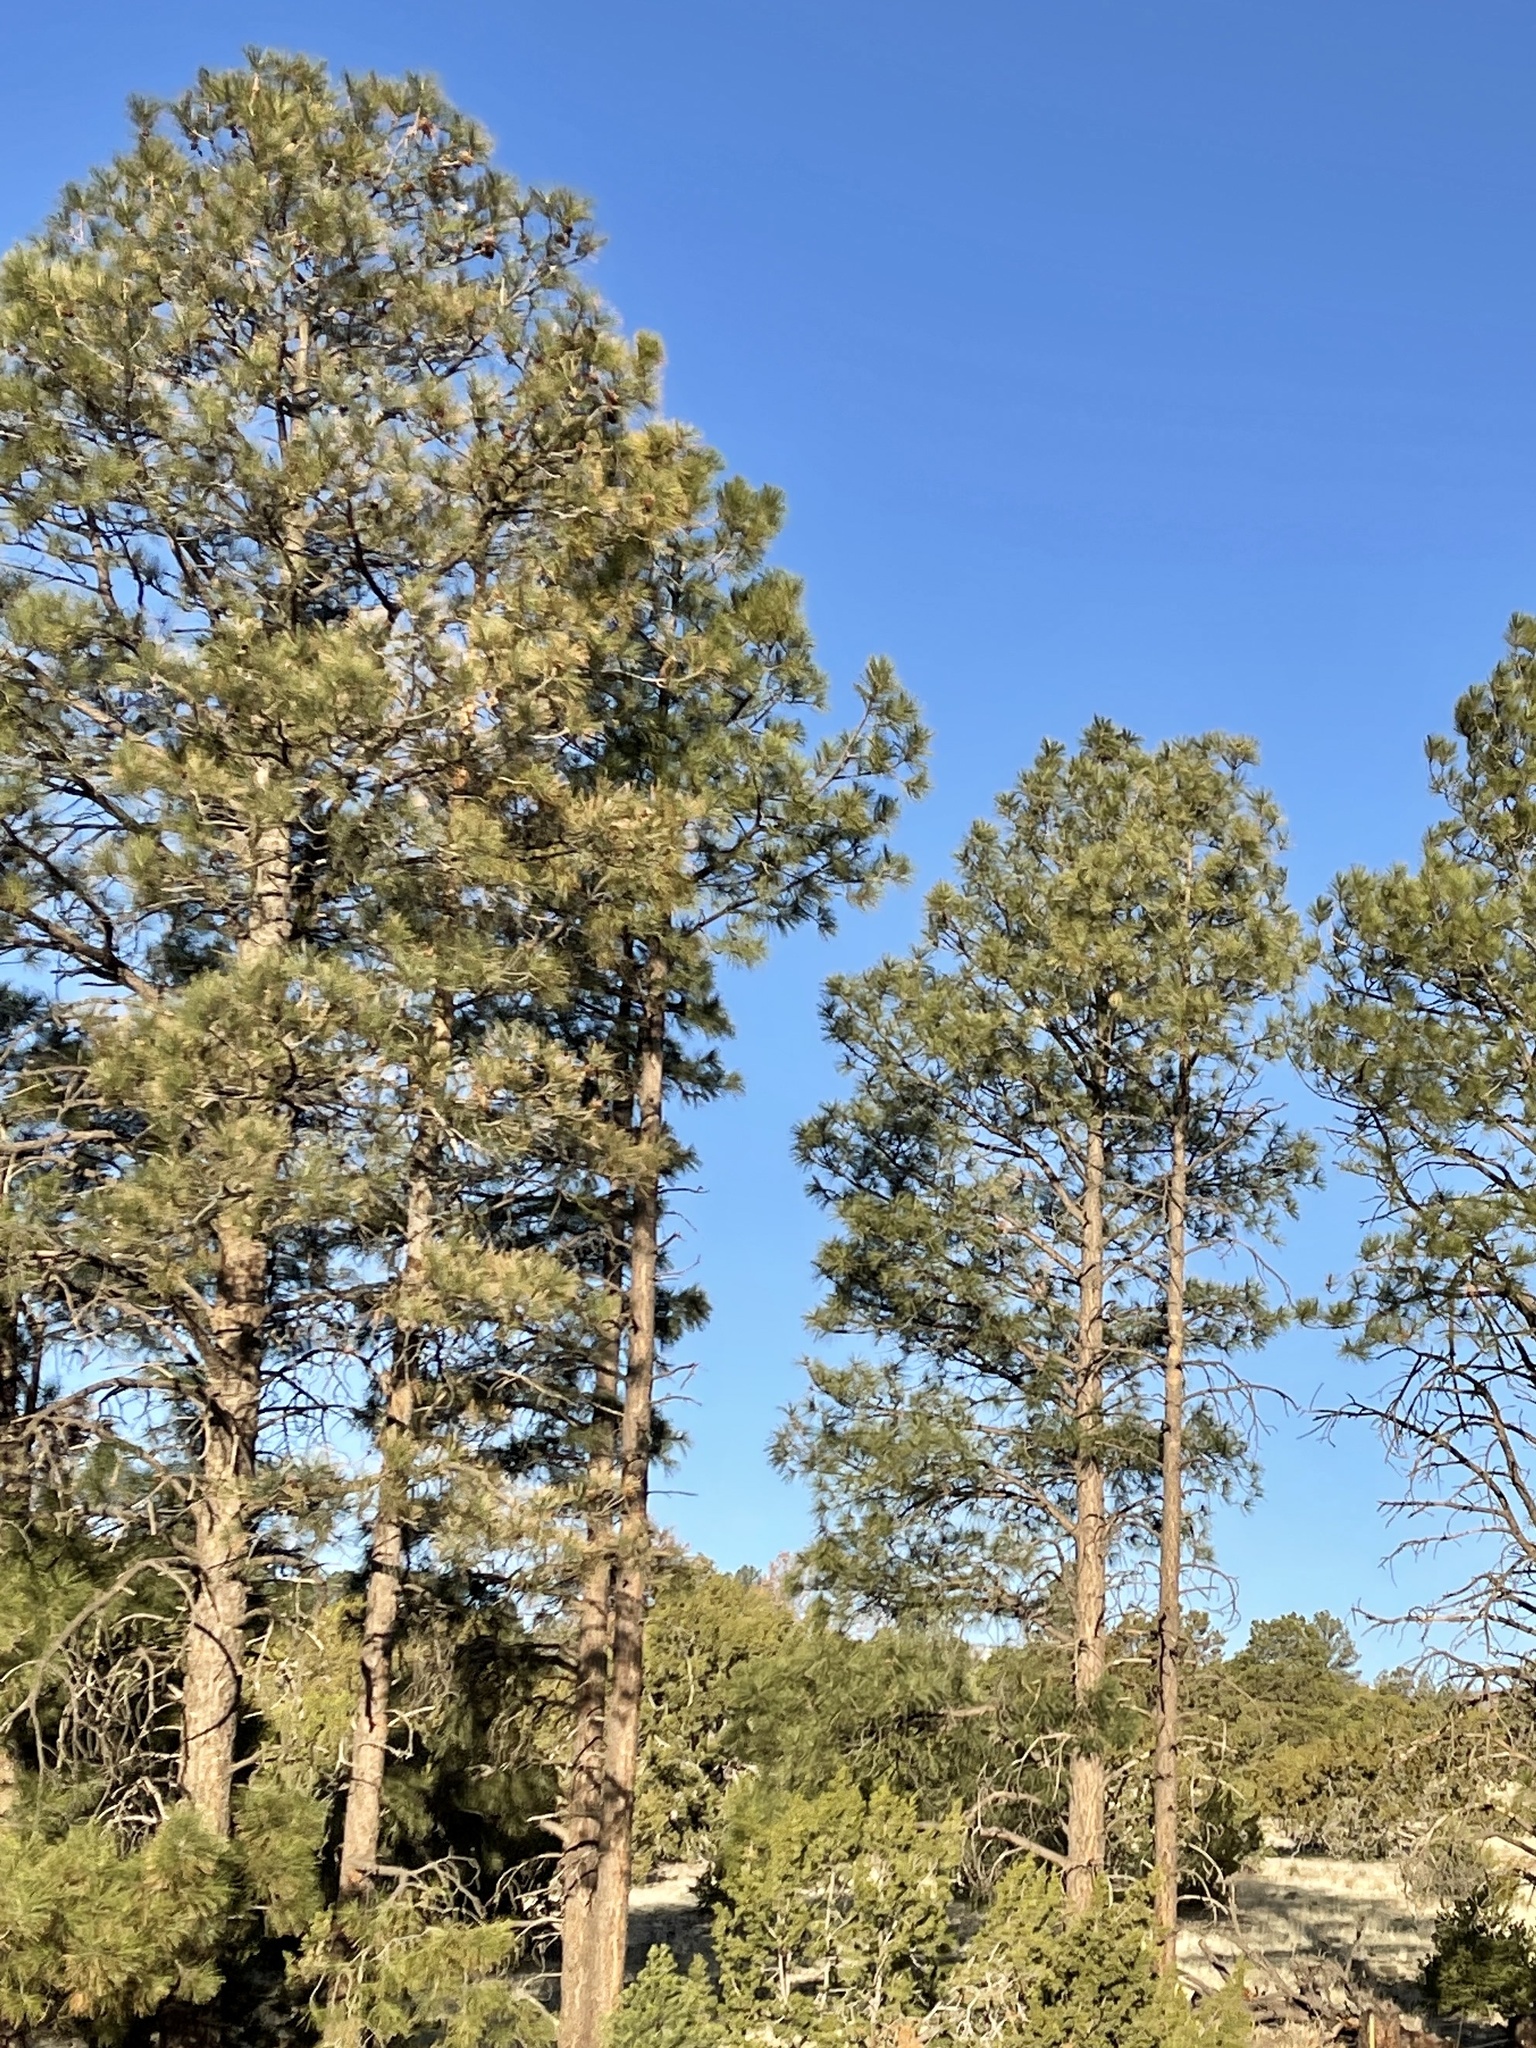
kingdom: Plantae
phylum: Tracheophyta
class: Pinopsida
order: Pinales
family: Pinaceae
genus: Pinus
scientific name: Pinus ponderosa
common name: Western yellow-pine
